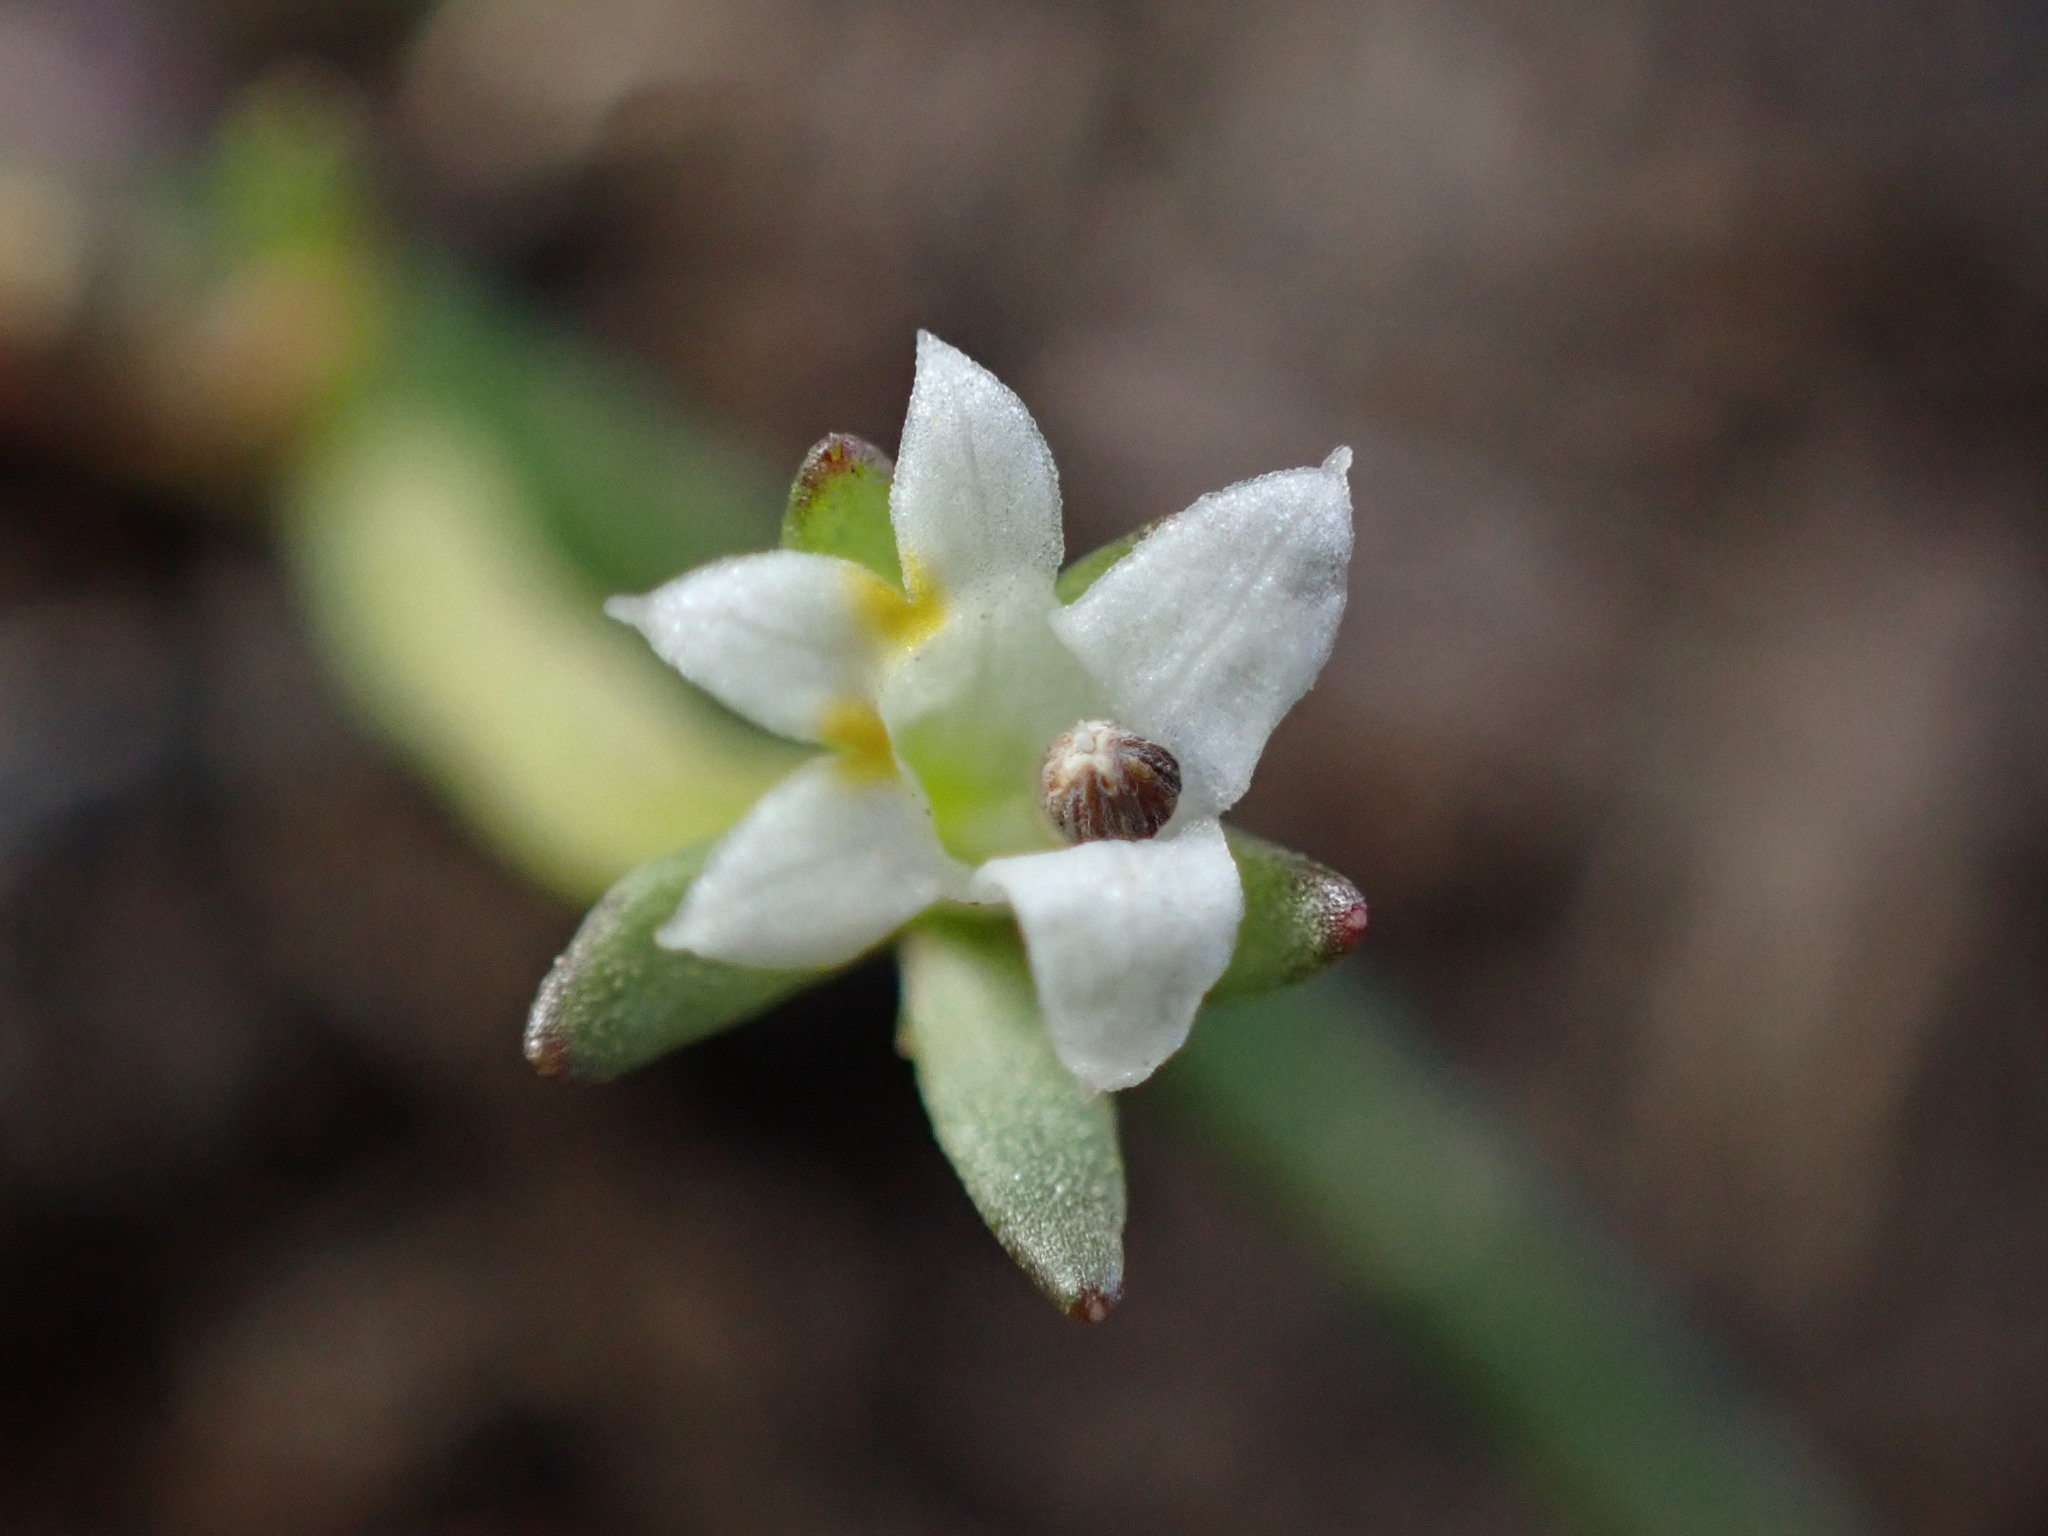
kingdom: Plantae
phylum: Tracheophyta
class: Magnoliopsida
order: Asterales
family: Campanulaceae
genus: Downingia
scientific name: Downingia pusilla
